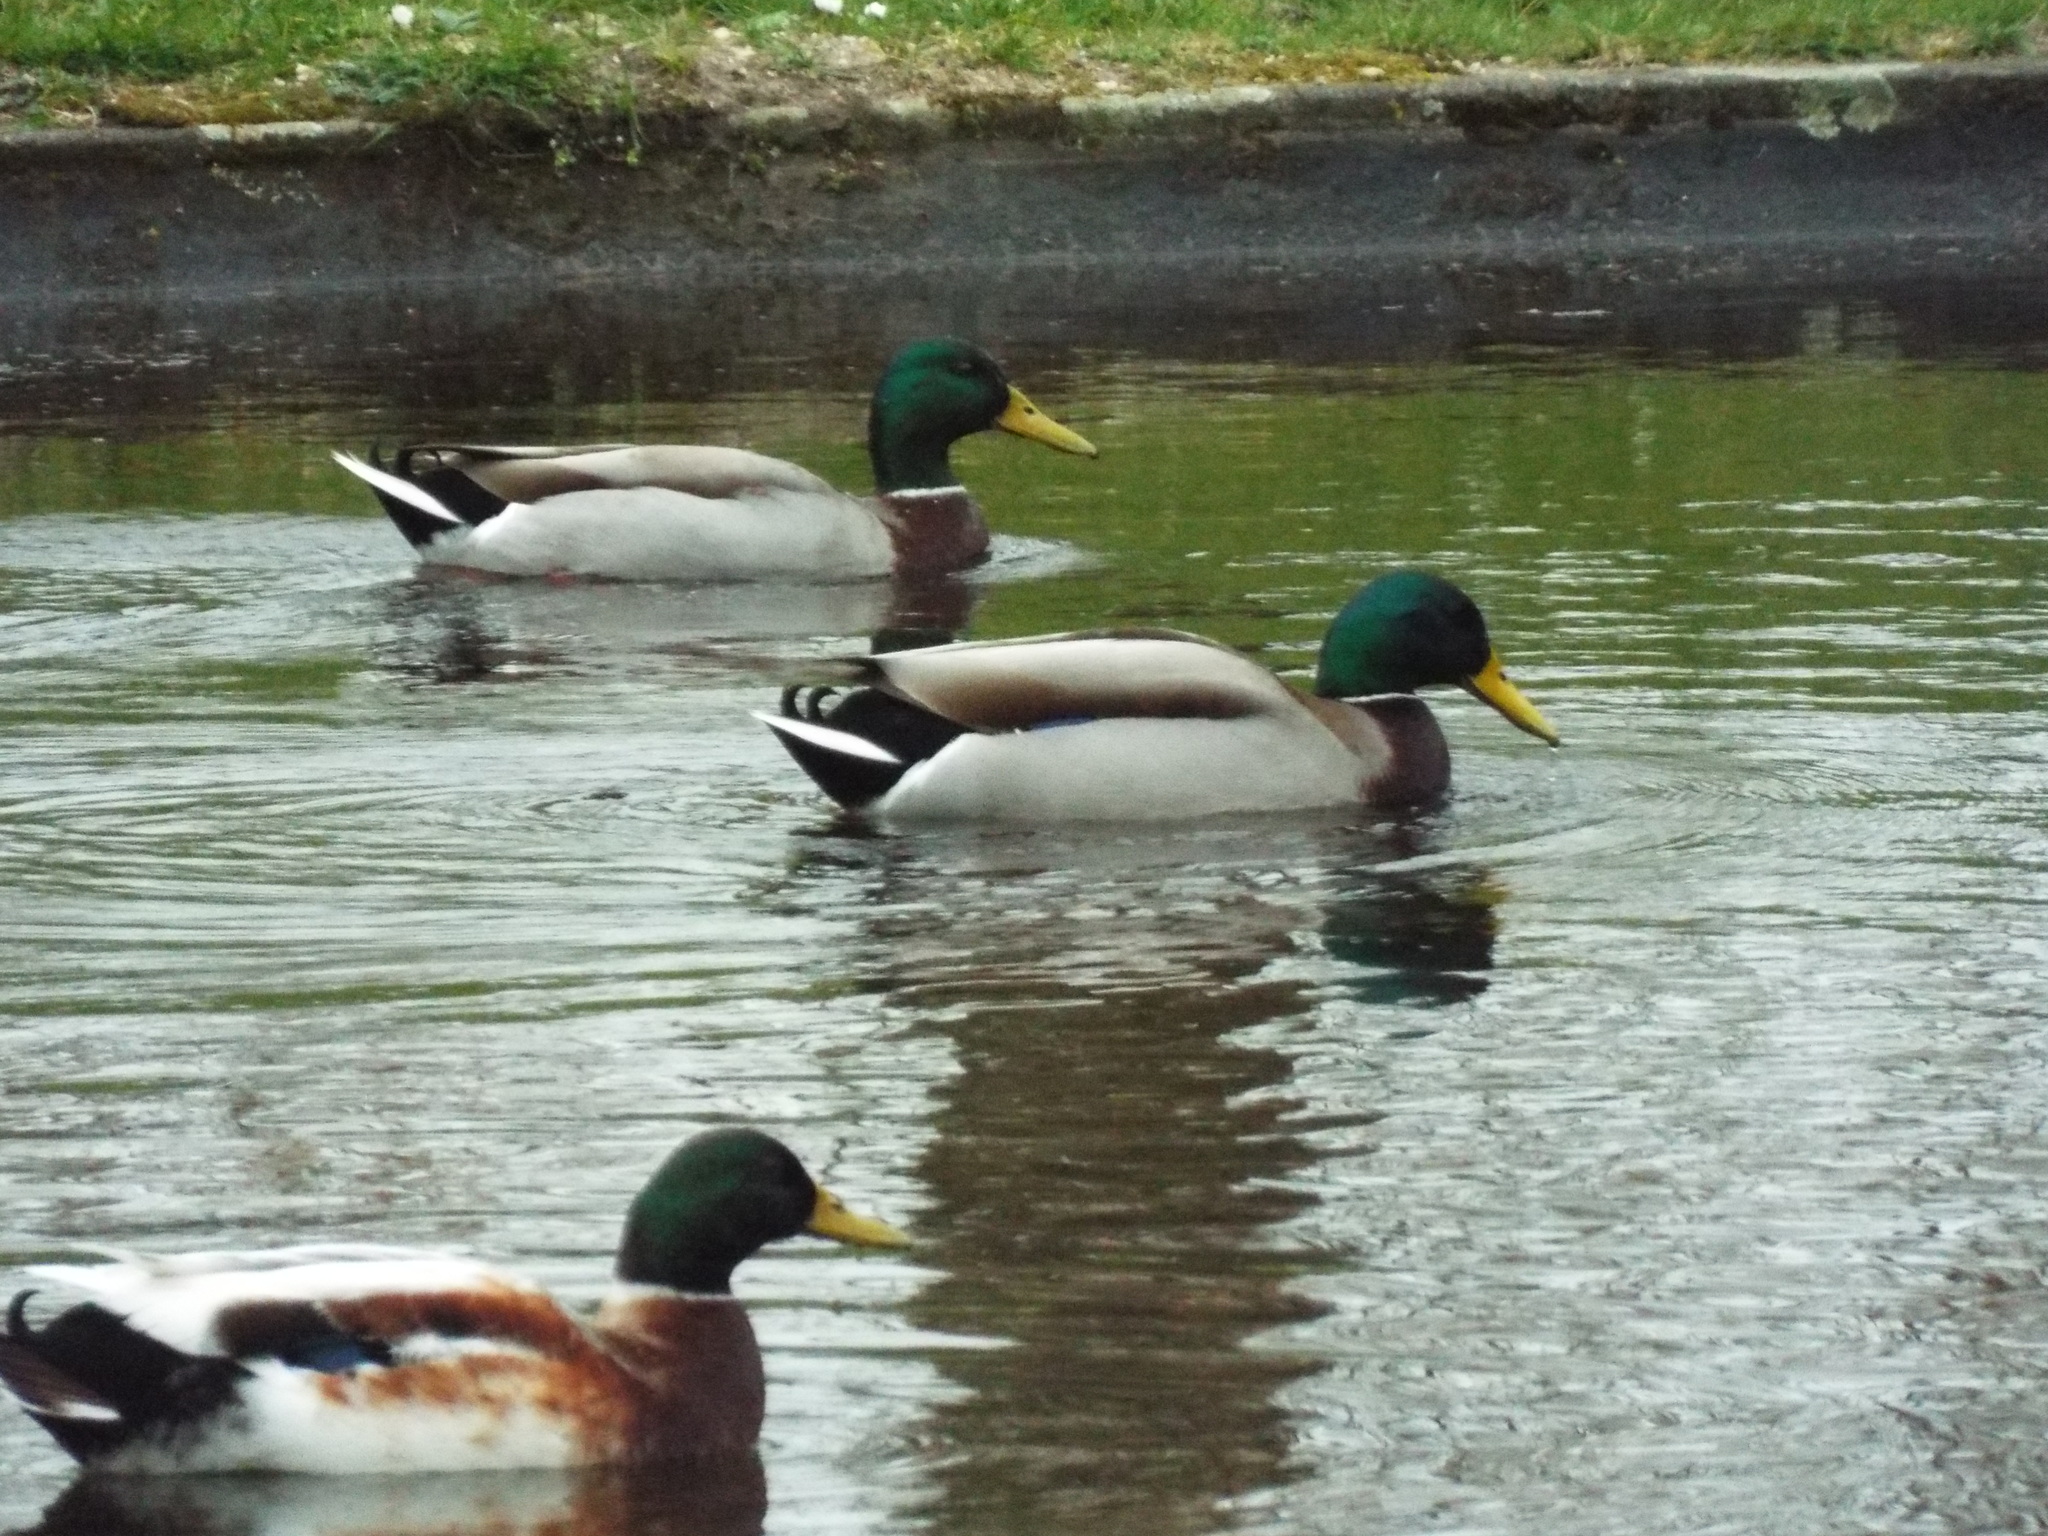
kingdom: Animalia
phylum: Chordata
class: Aves
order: Anseriformes
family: Anatidae
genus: Anas
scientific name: Anas platyrhynchos
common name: Mallard
